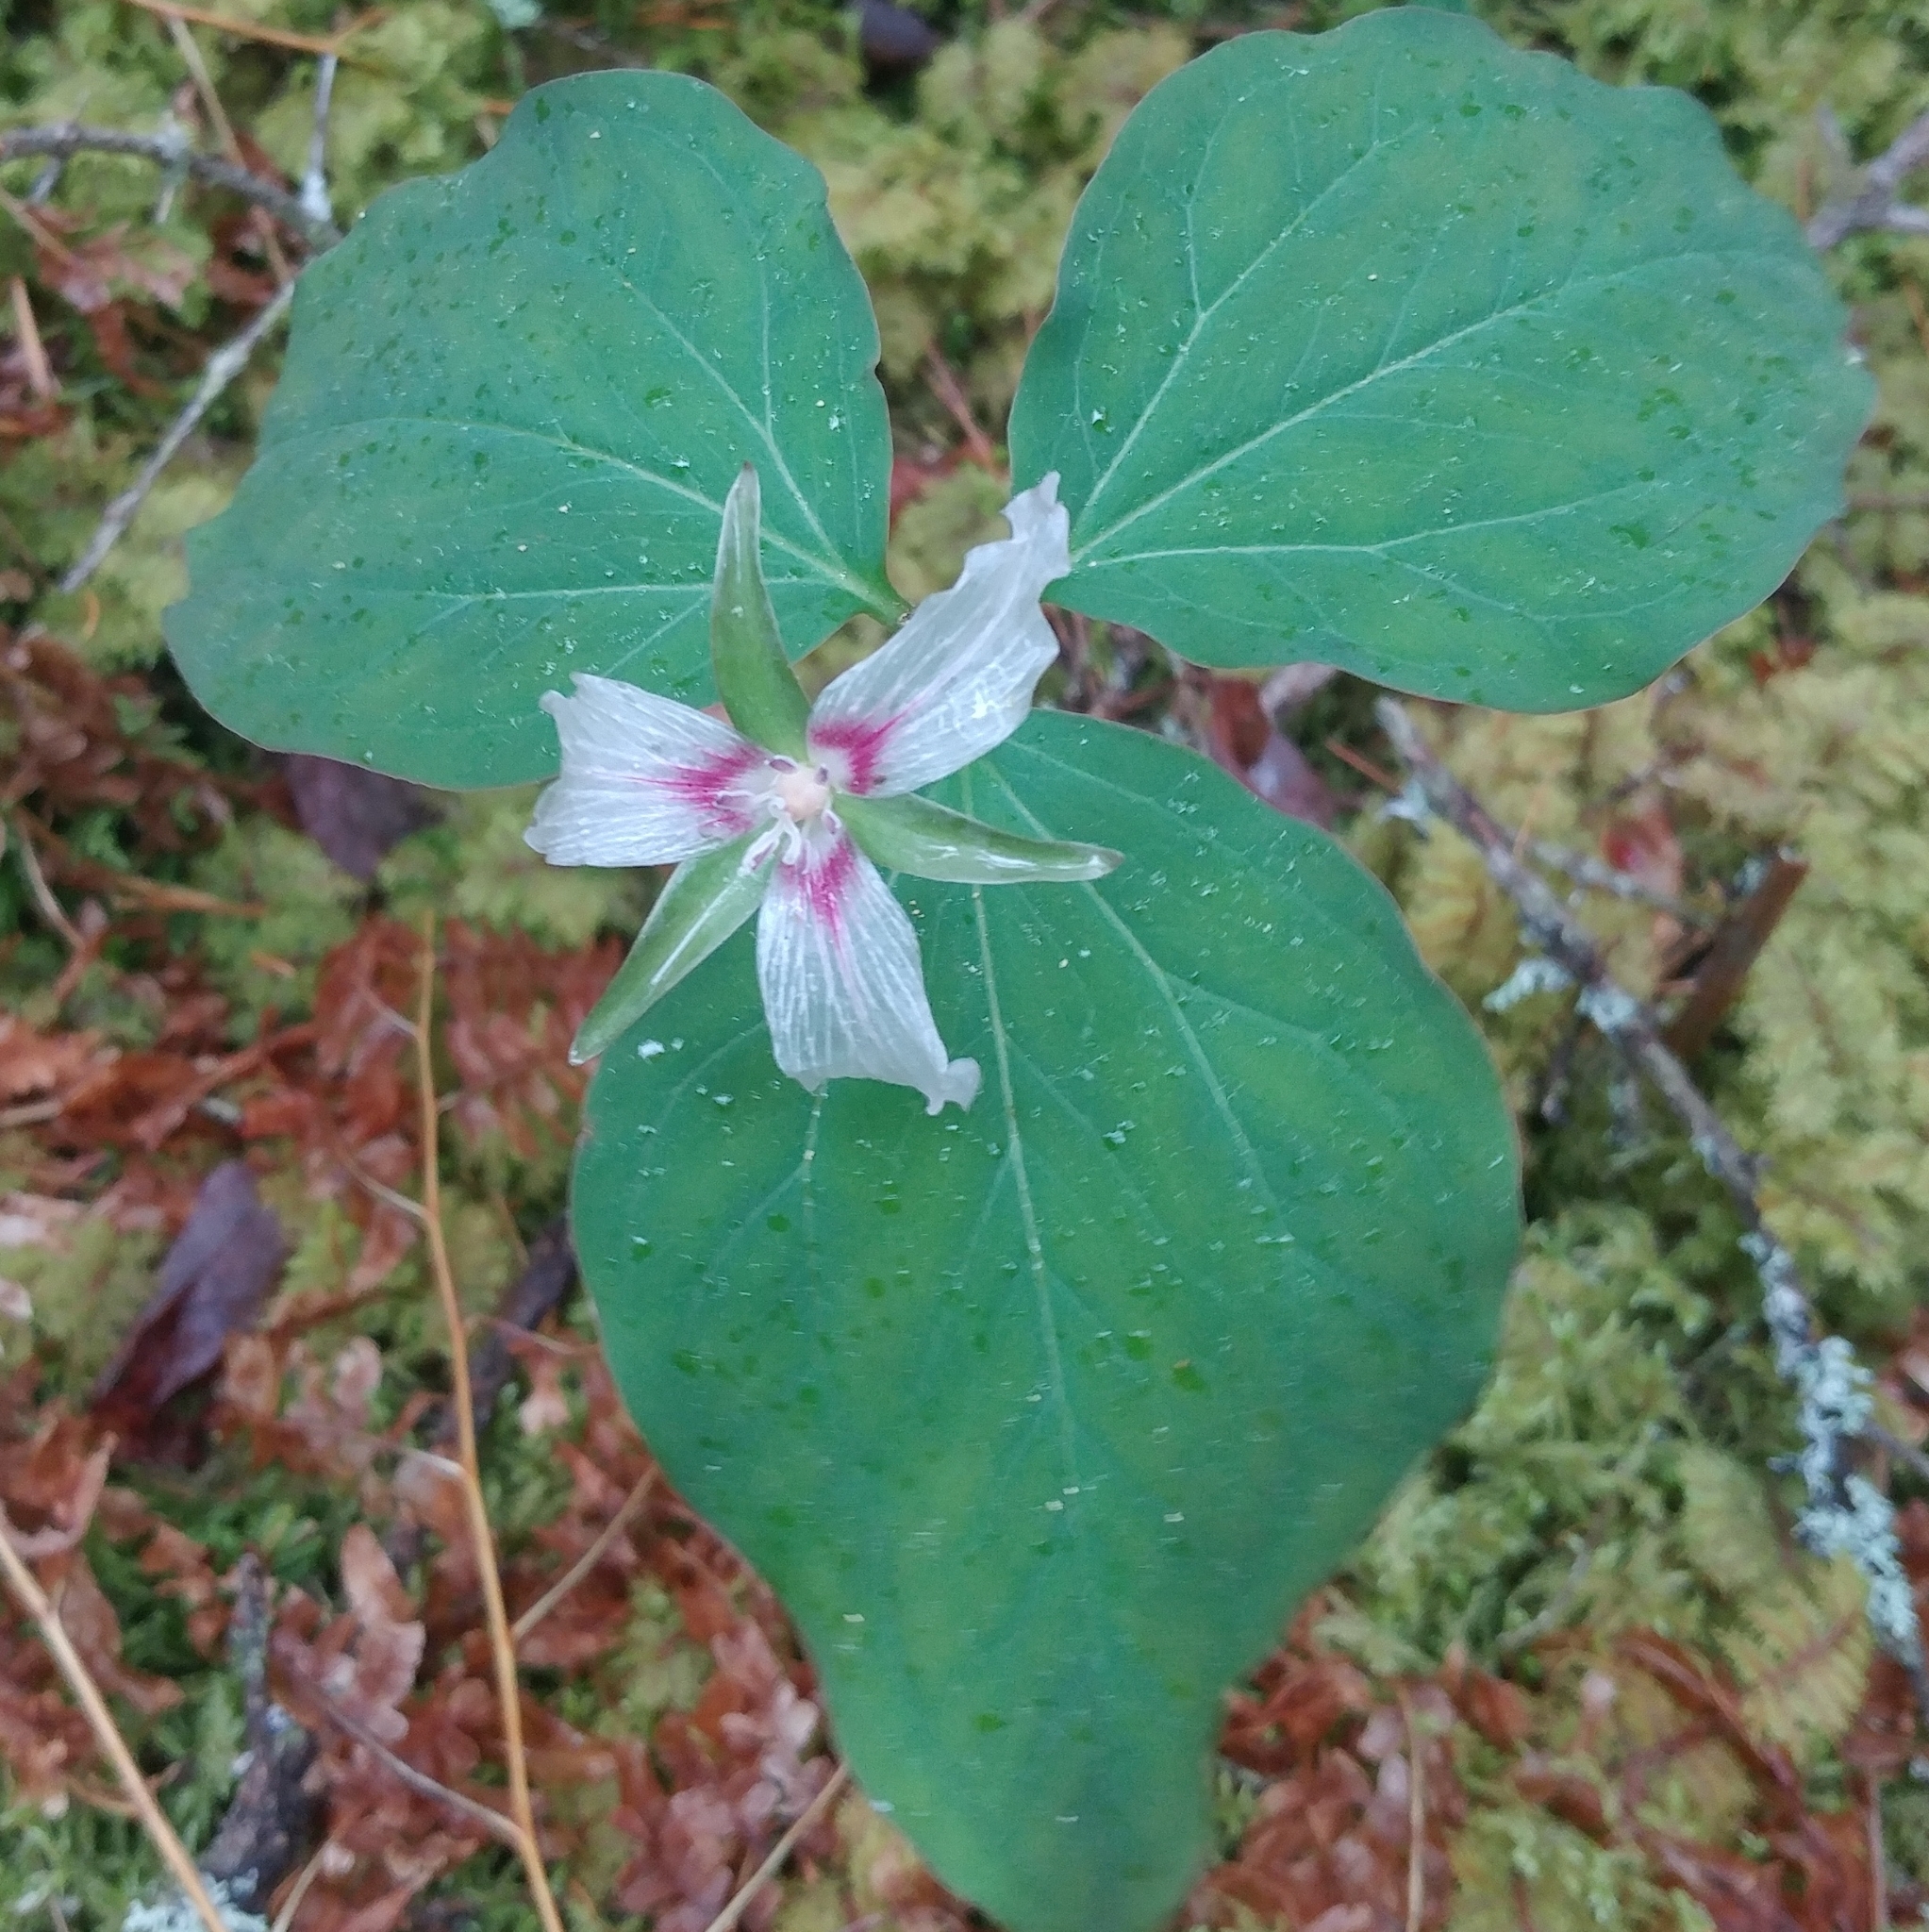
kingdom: Plantae
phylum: Tracheophyta
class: Liliopsida
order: Liliales
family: Melanthiaceae
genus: Trillium
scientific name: Trillium undulatum
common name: Paint trillium
